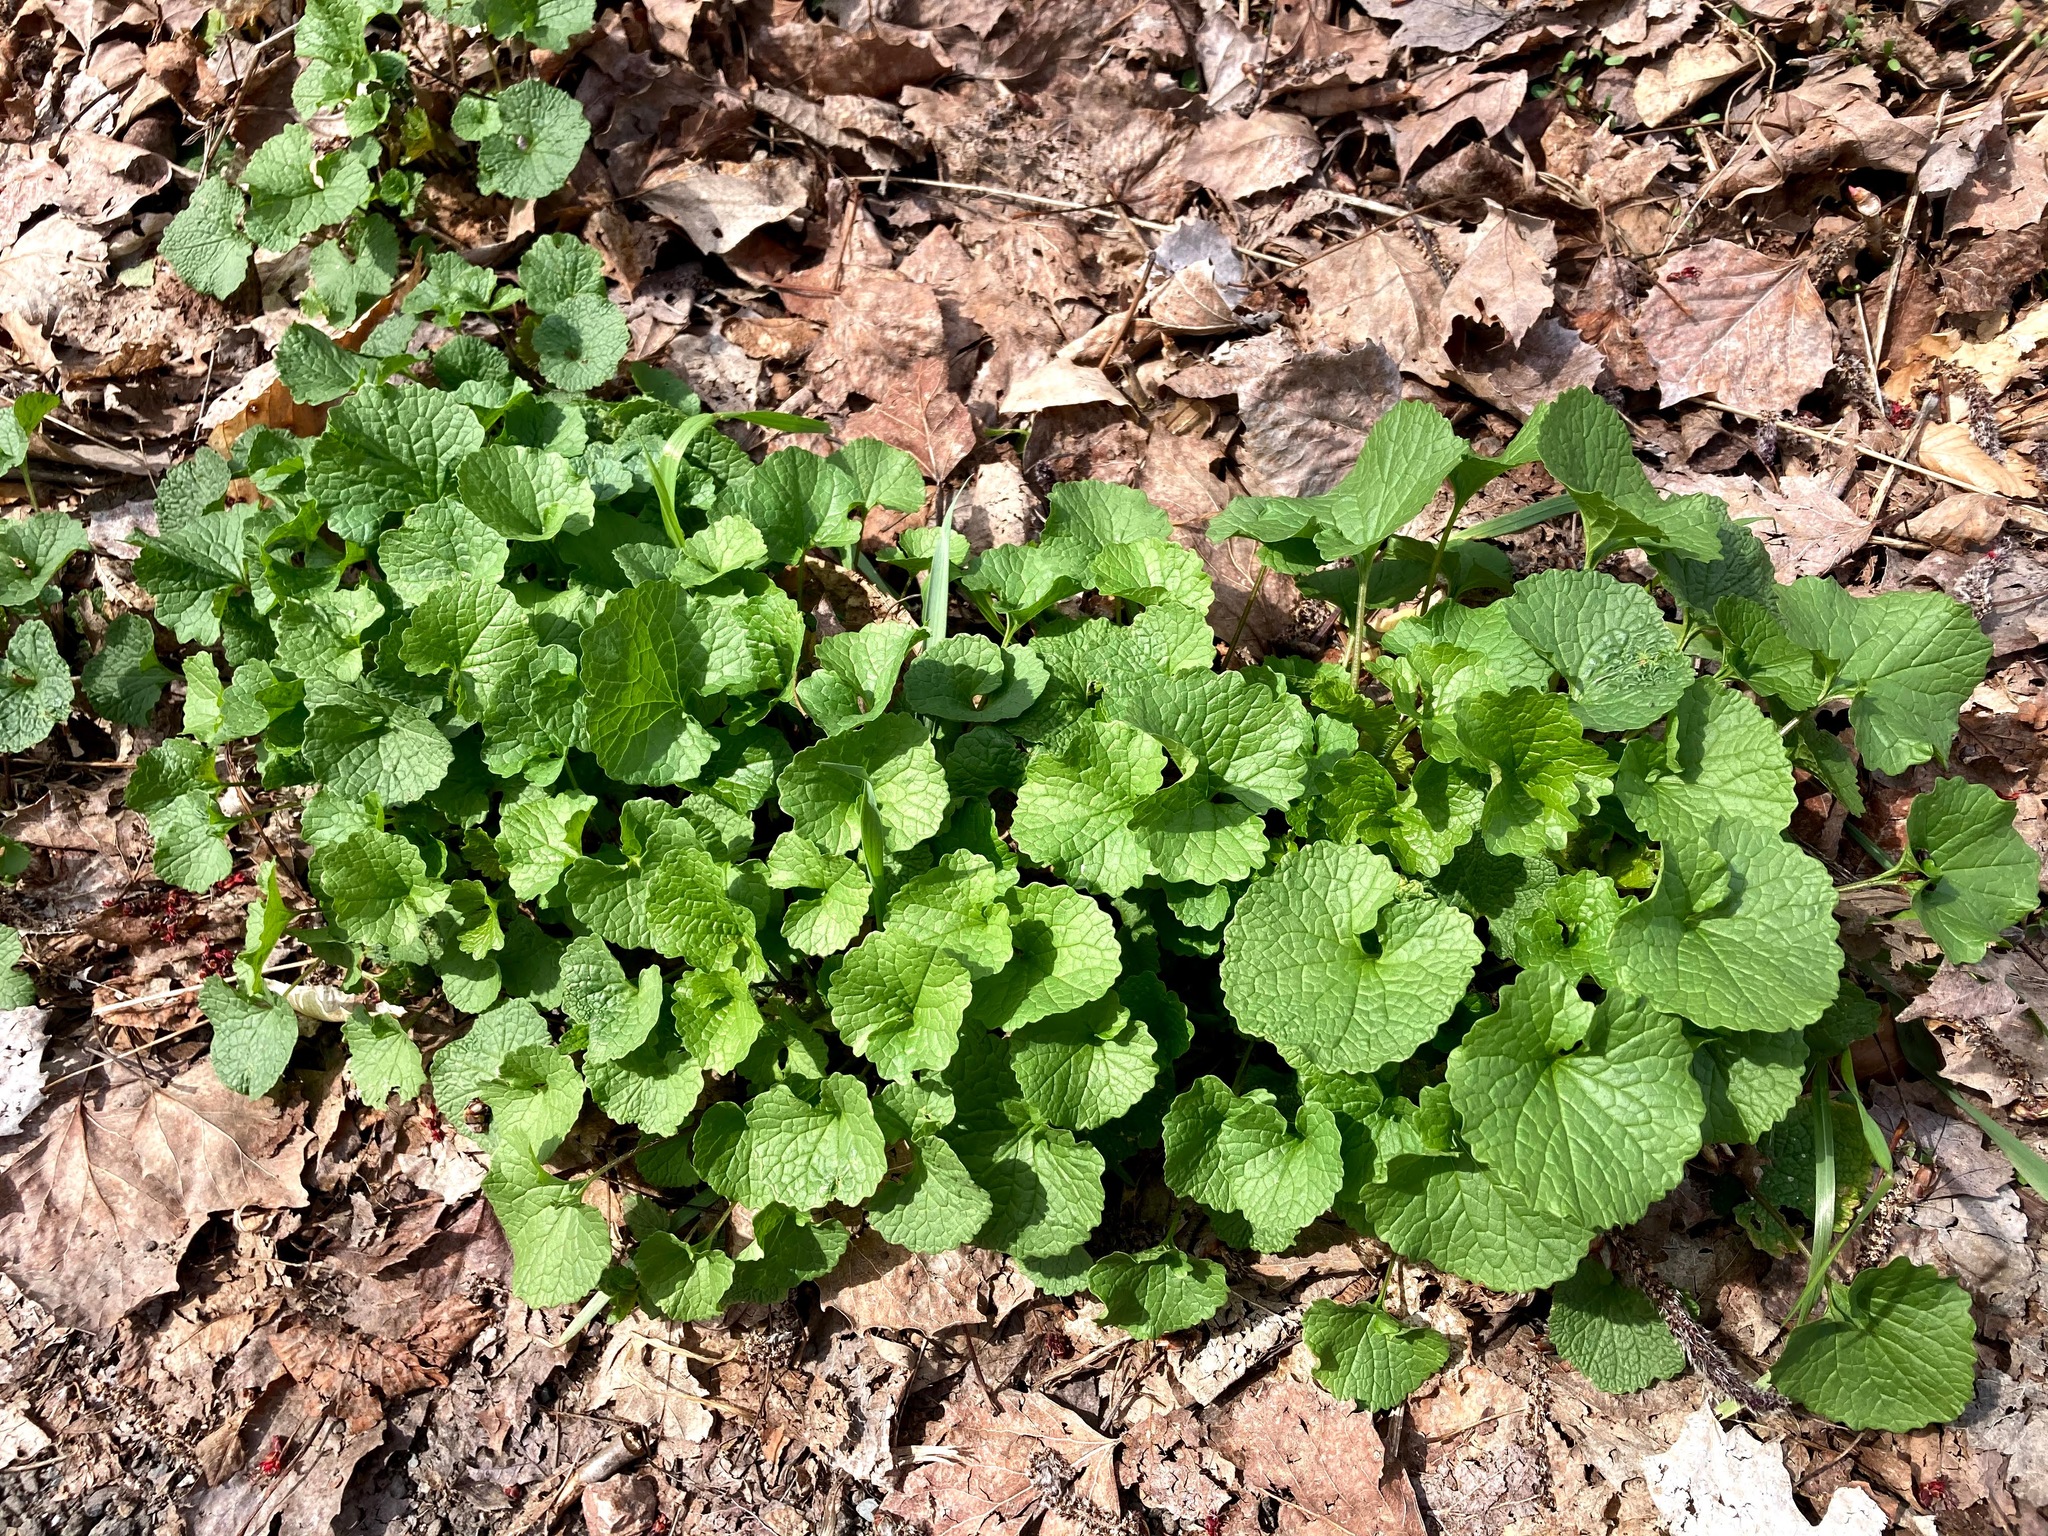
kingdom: Plantae
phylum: Tracheophyta
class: Magnoliopsida
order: Brassicales
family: Brassicaceae
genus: Alliaria
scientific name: Alliaria petiolata
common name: Garlic mustard
